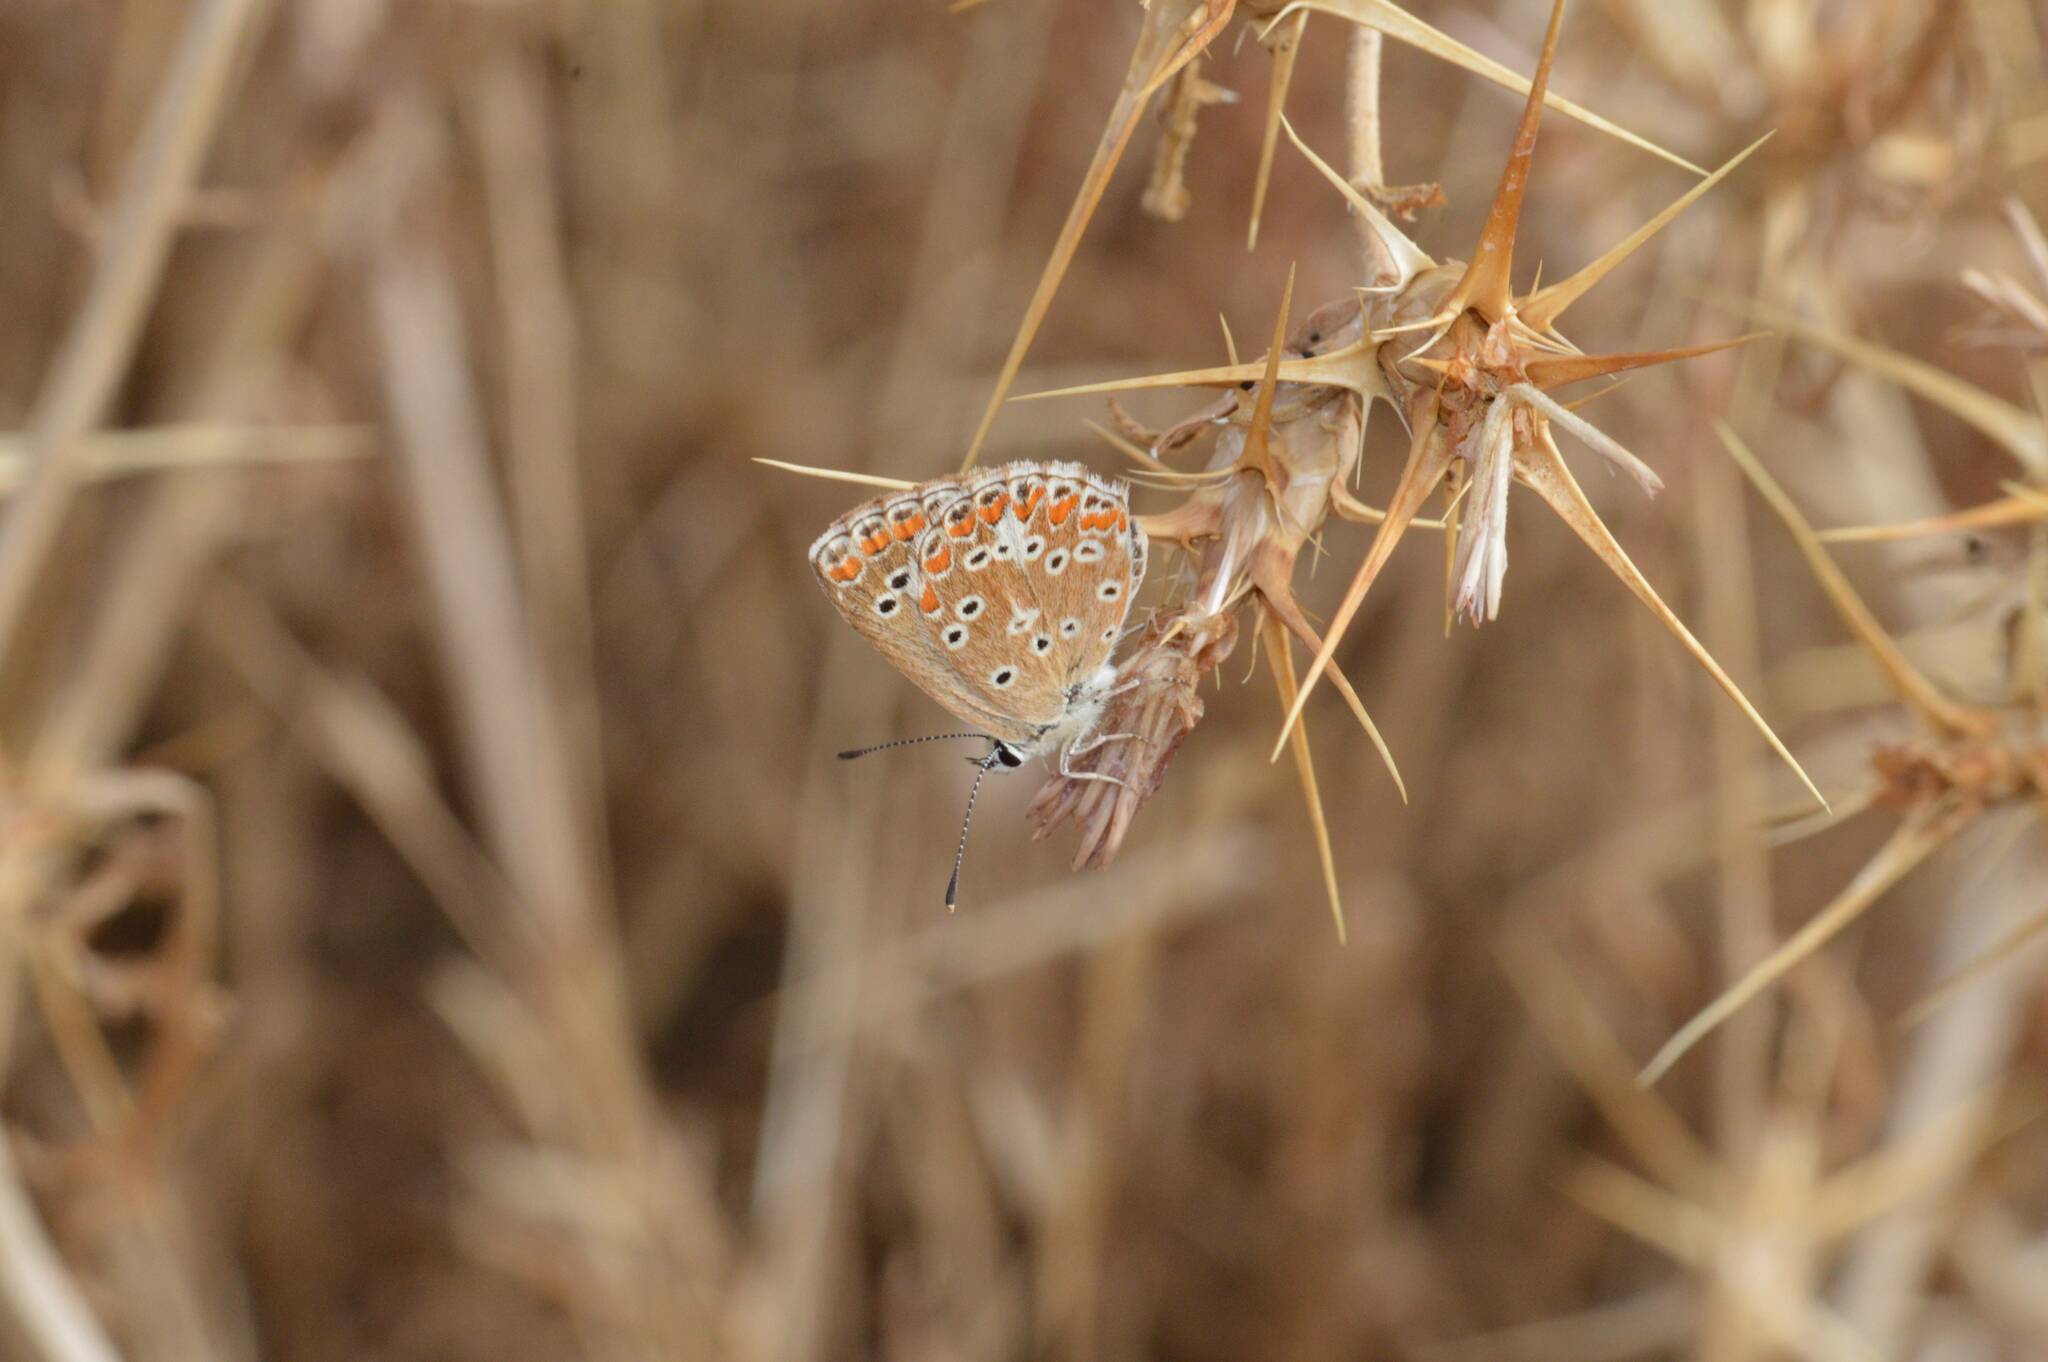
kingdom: Animalia
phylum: Arthropoda
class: Insecta
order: Lepidoptera
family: Lycaenidae
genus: Aricia
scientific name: Aricia cramera
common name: Eschscholtz´s brown  argus
